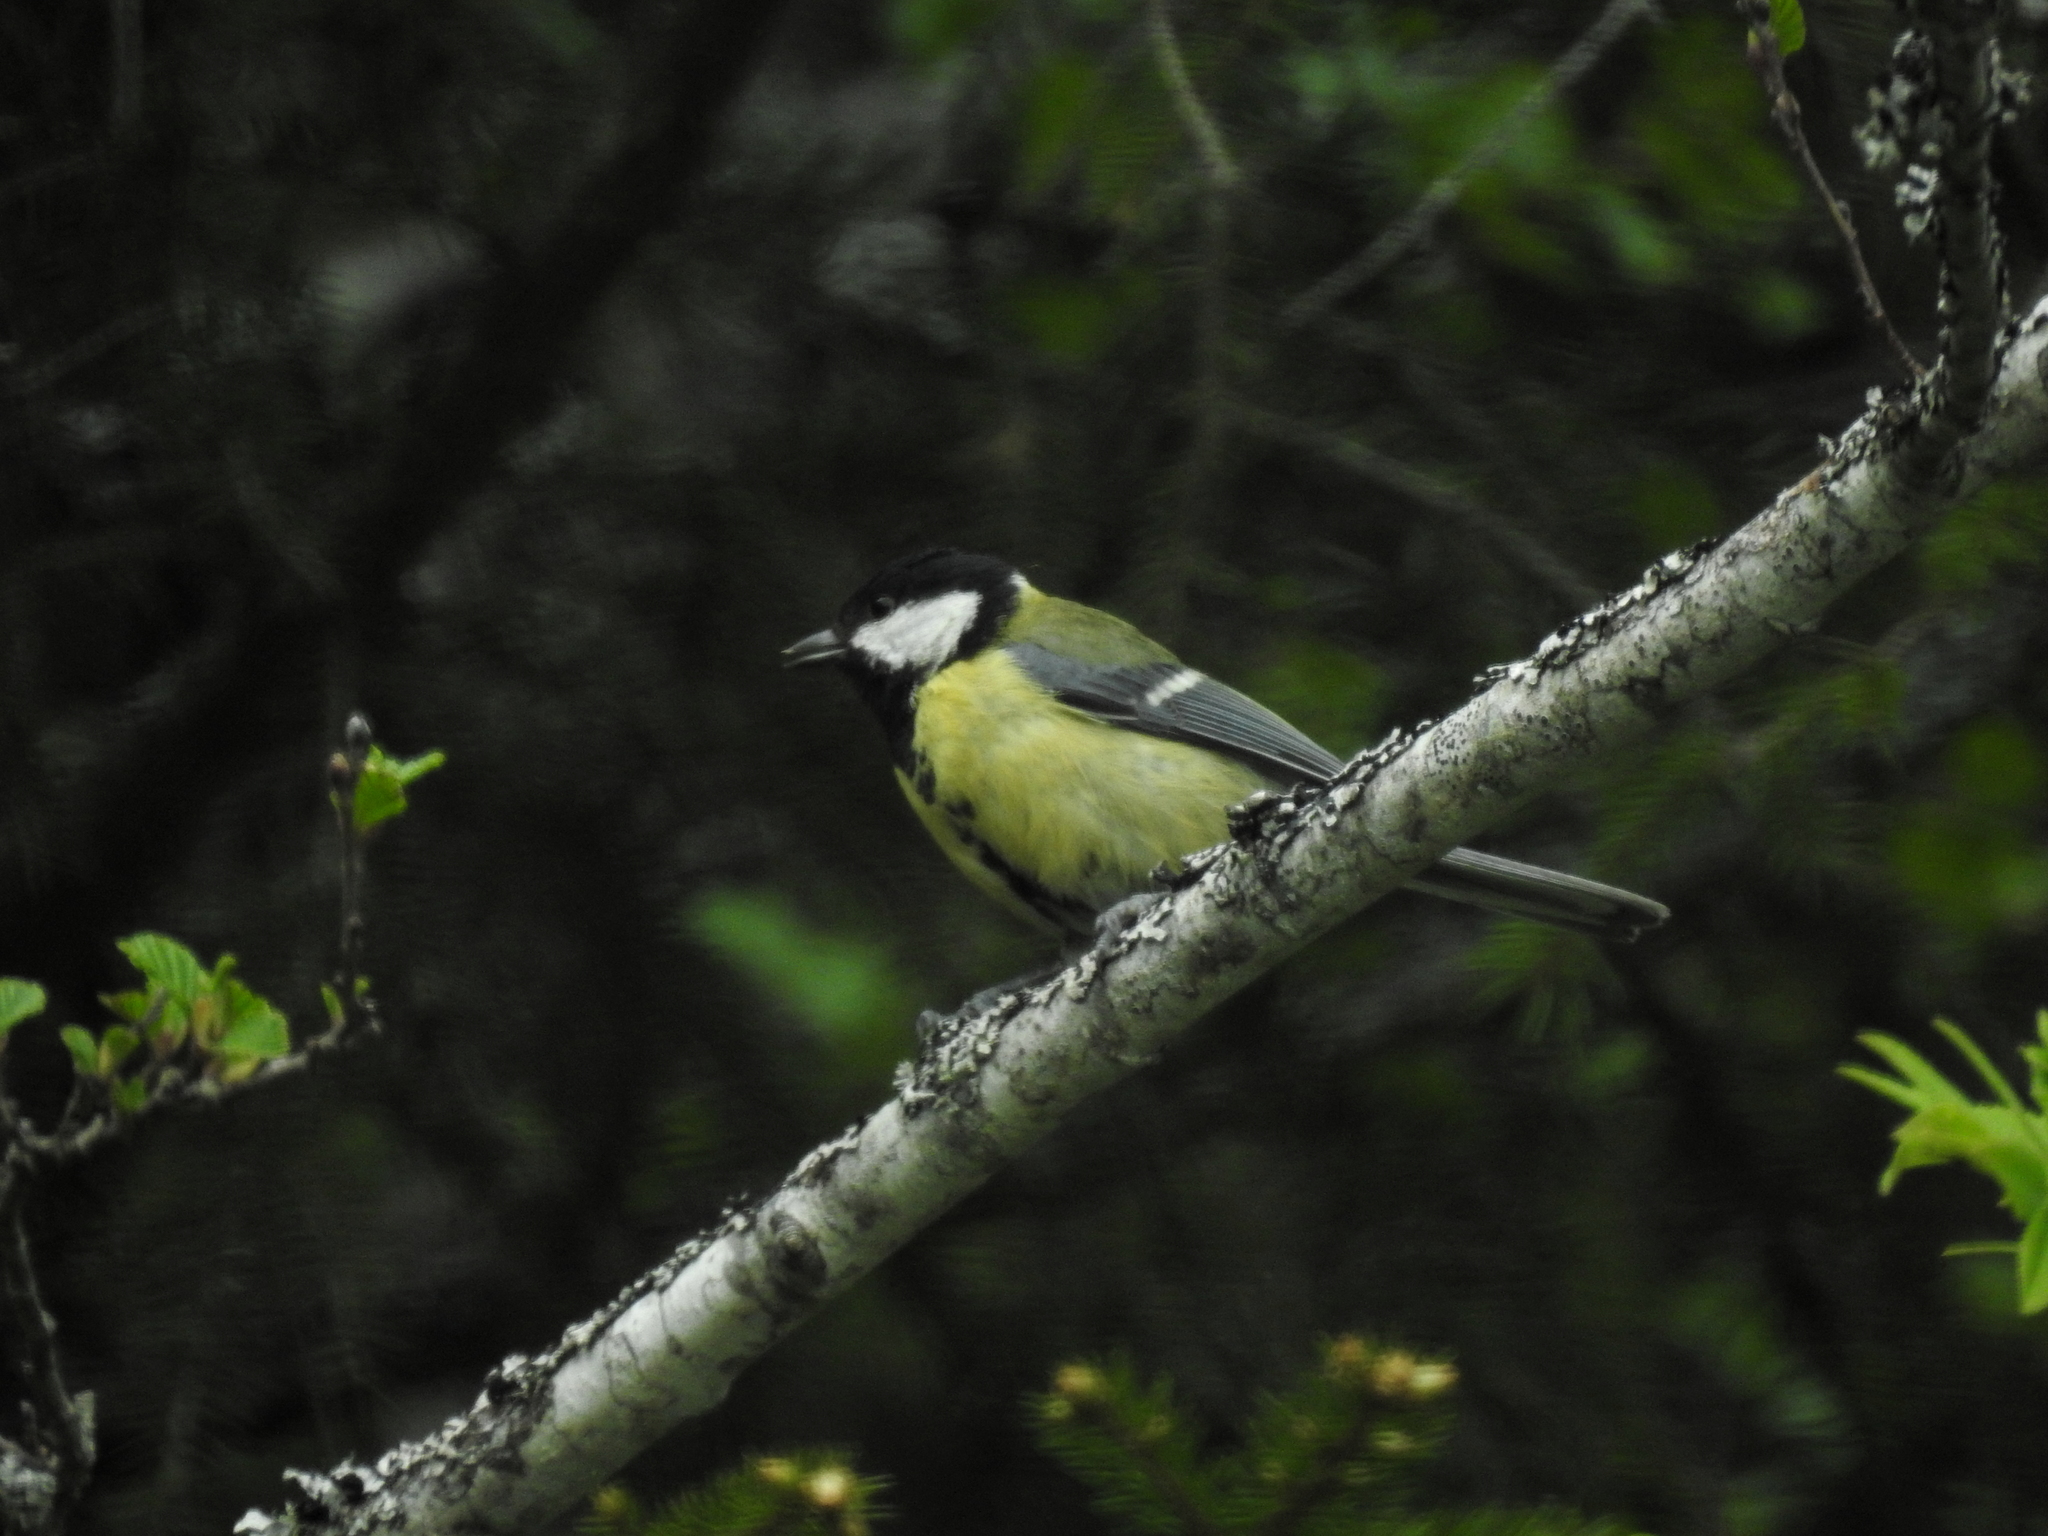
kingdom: Animalia
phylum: Chordata
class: Aves
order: Passeriformes
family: Paridae
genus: Parus
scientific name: Parus major
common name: Great tit
